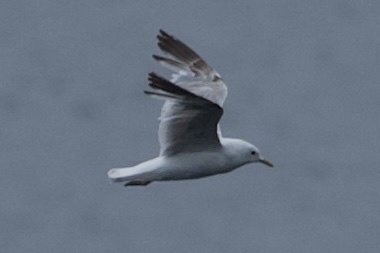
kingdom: Animalia
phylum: Chordata
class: Aves
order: Charadriiformes
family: Laridae
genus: Larus
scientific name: Larus brachyrhynchus
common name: Short-billed gull
